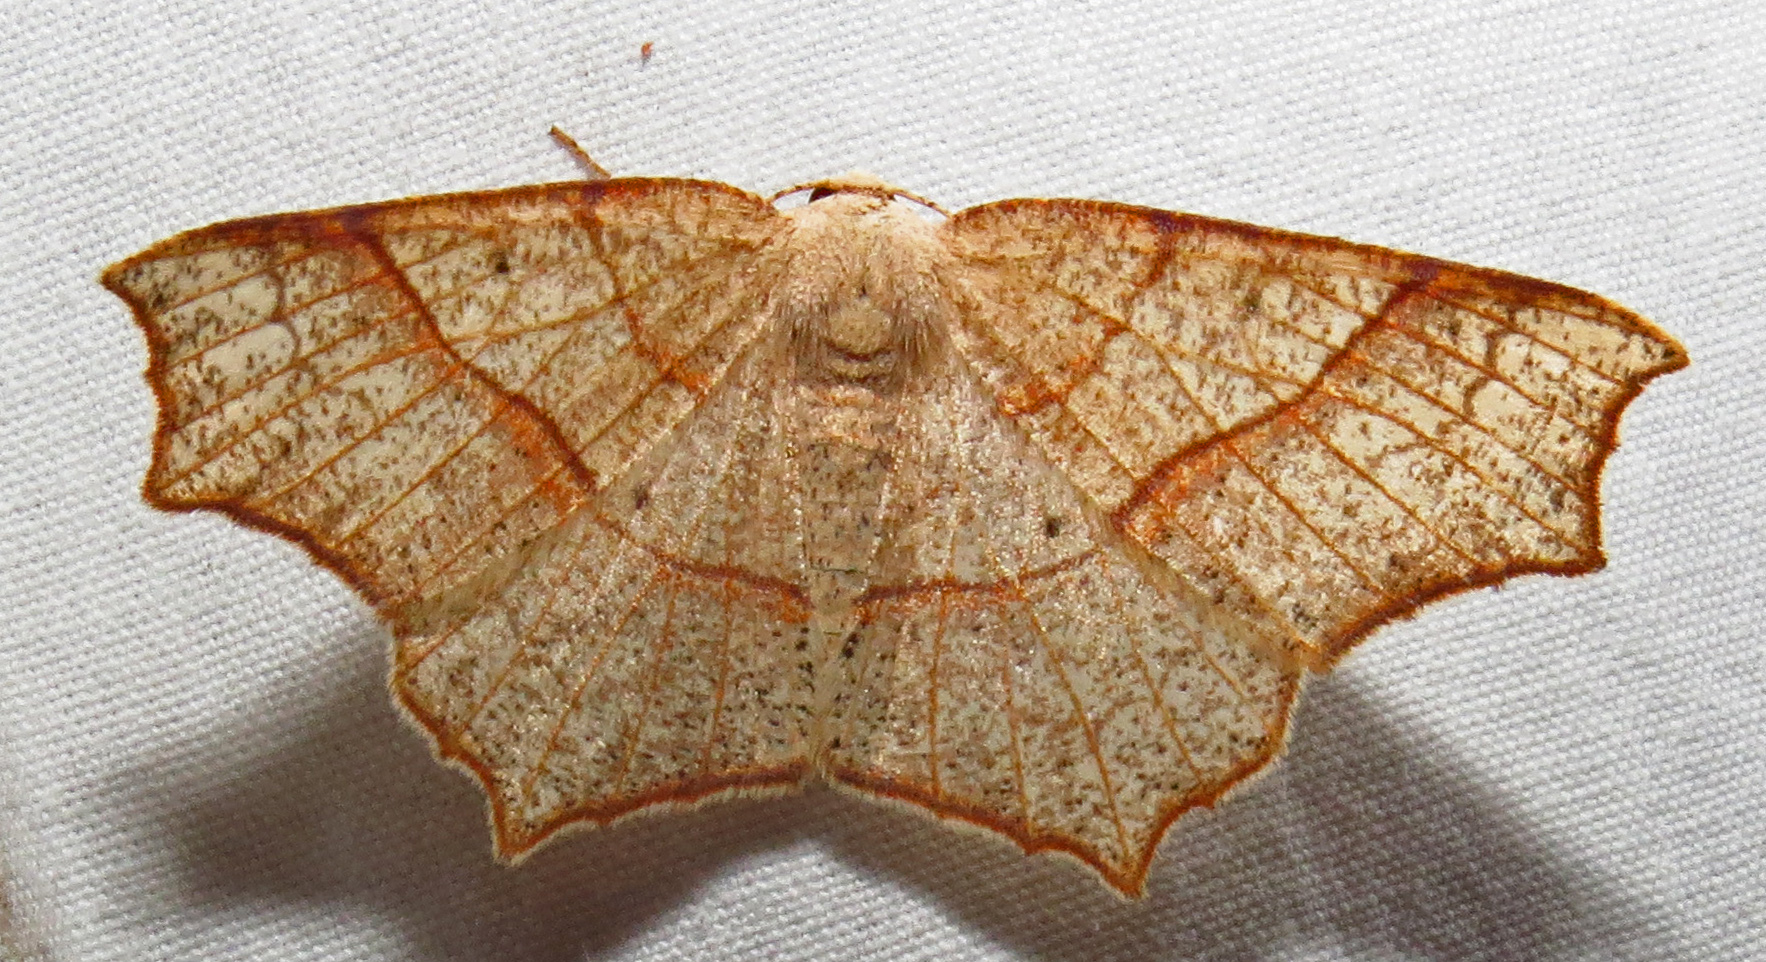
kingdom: Animalia
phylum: Arthropoda
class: Insecta
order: Lepidoptera
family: Geometridae
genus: Besma
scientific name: Besma quercivoraria
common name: Oak besma
